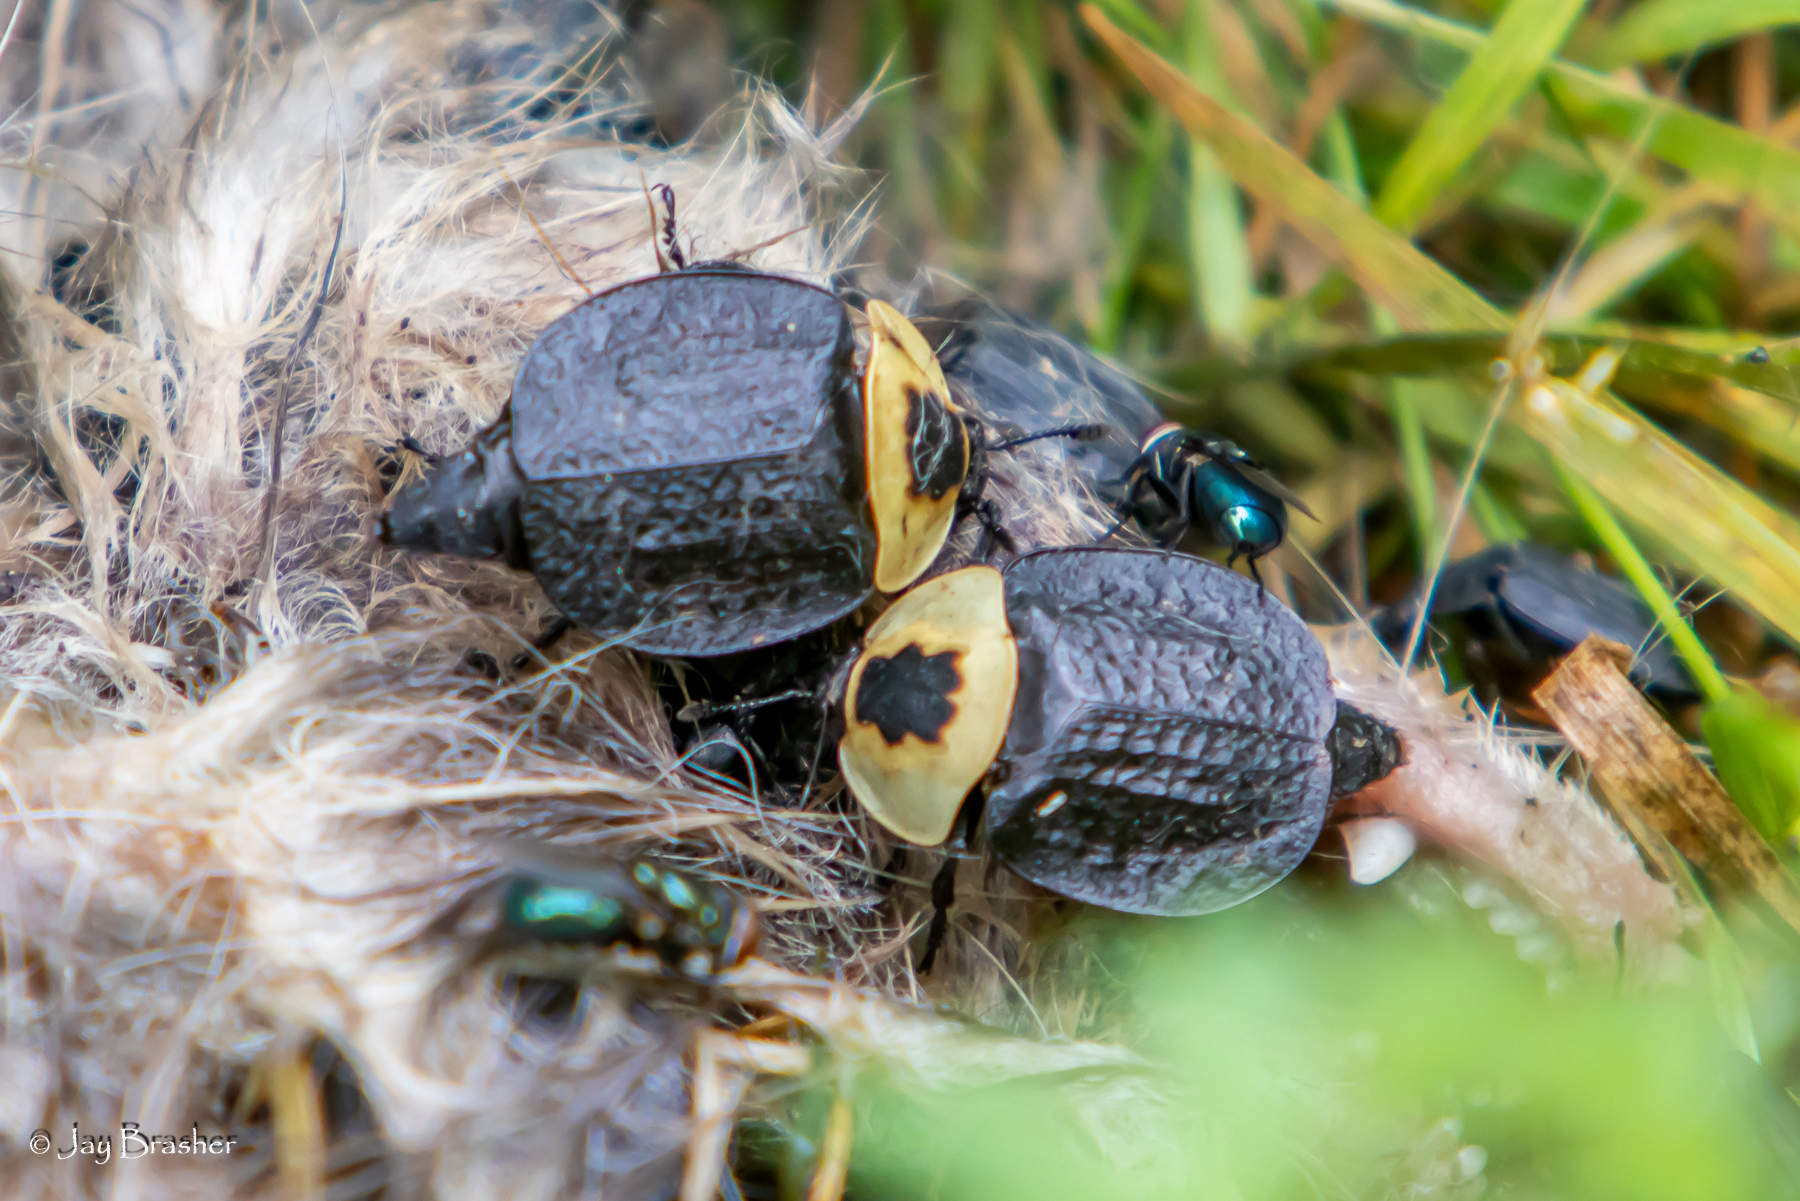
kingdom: Animalia
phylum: Arthropoda
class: Insecta
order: Coleoptera
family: Staphylinidae
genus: Necrophila
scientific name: Necrophila americana
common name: American carrion beetle
